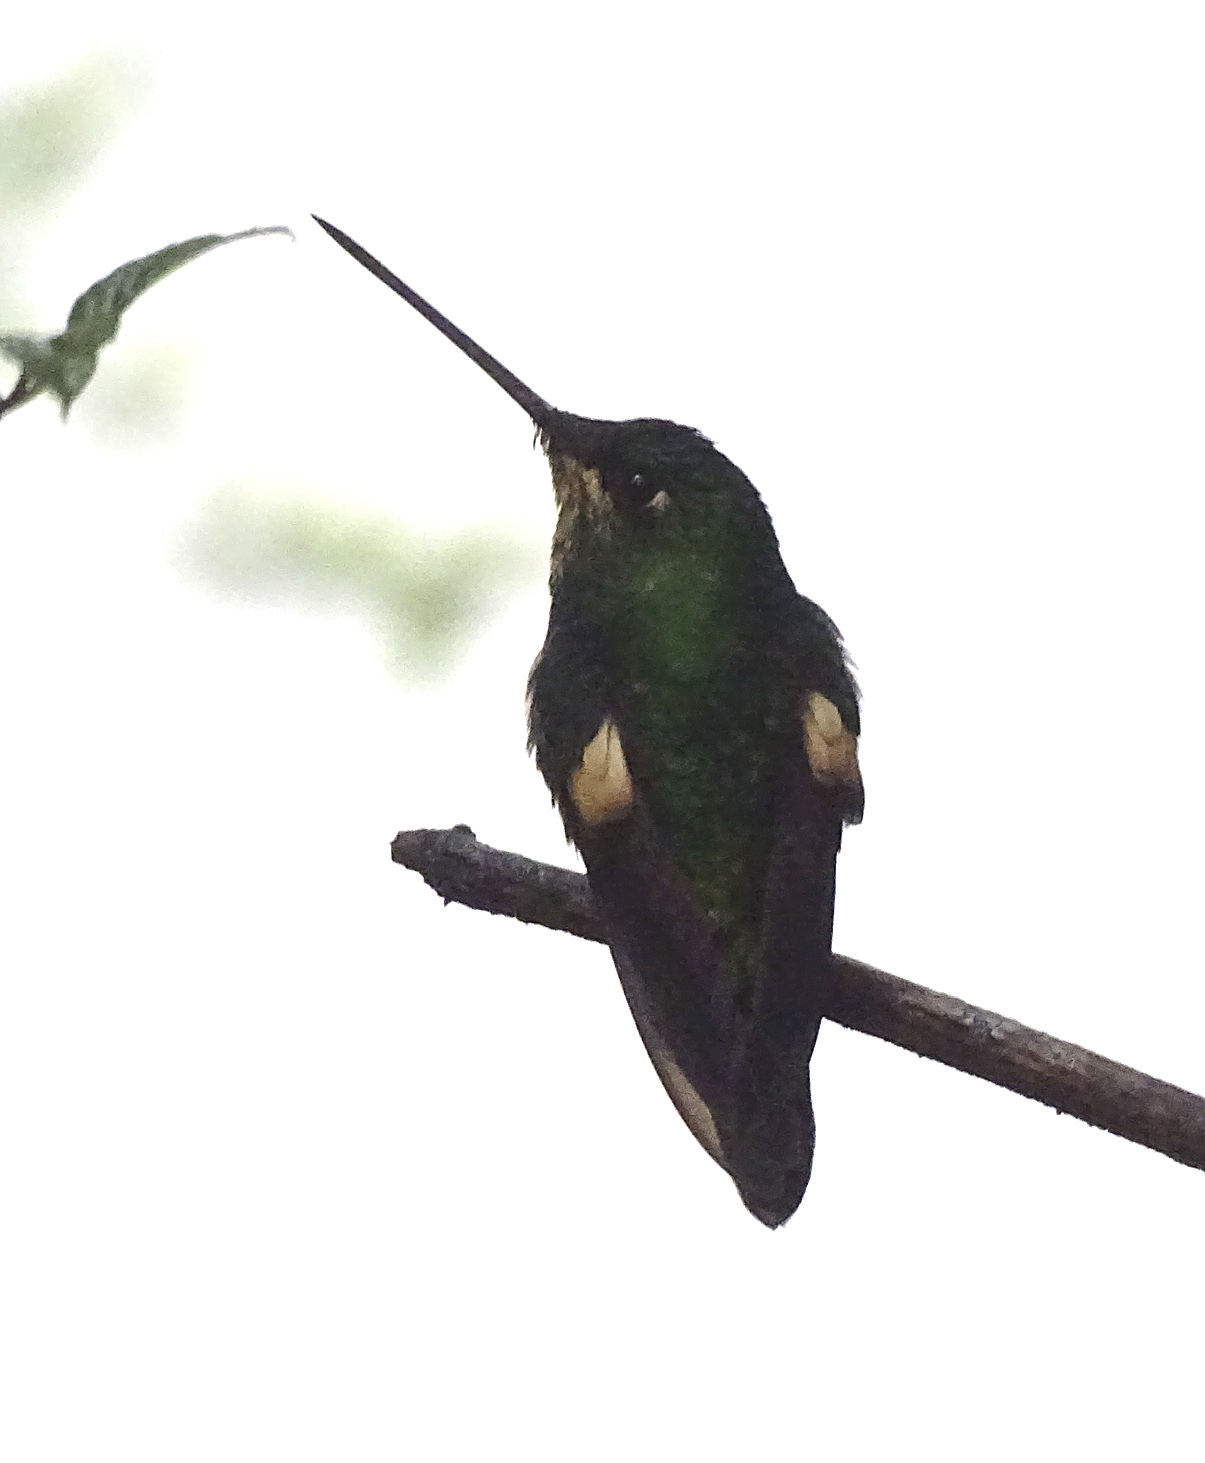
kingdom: Animalia
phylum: Chordata
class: Aves
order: Apodiformes
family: Trochilidae
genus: Coeligena
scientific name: Coeligena lutetiae
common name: Buff-winged starfrontlet
